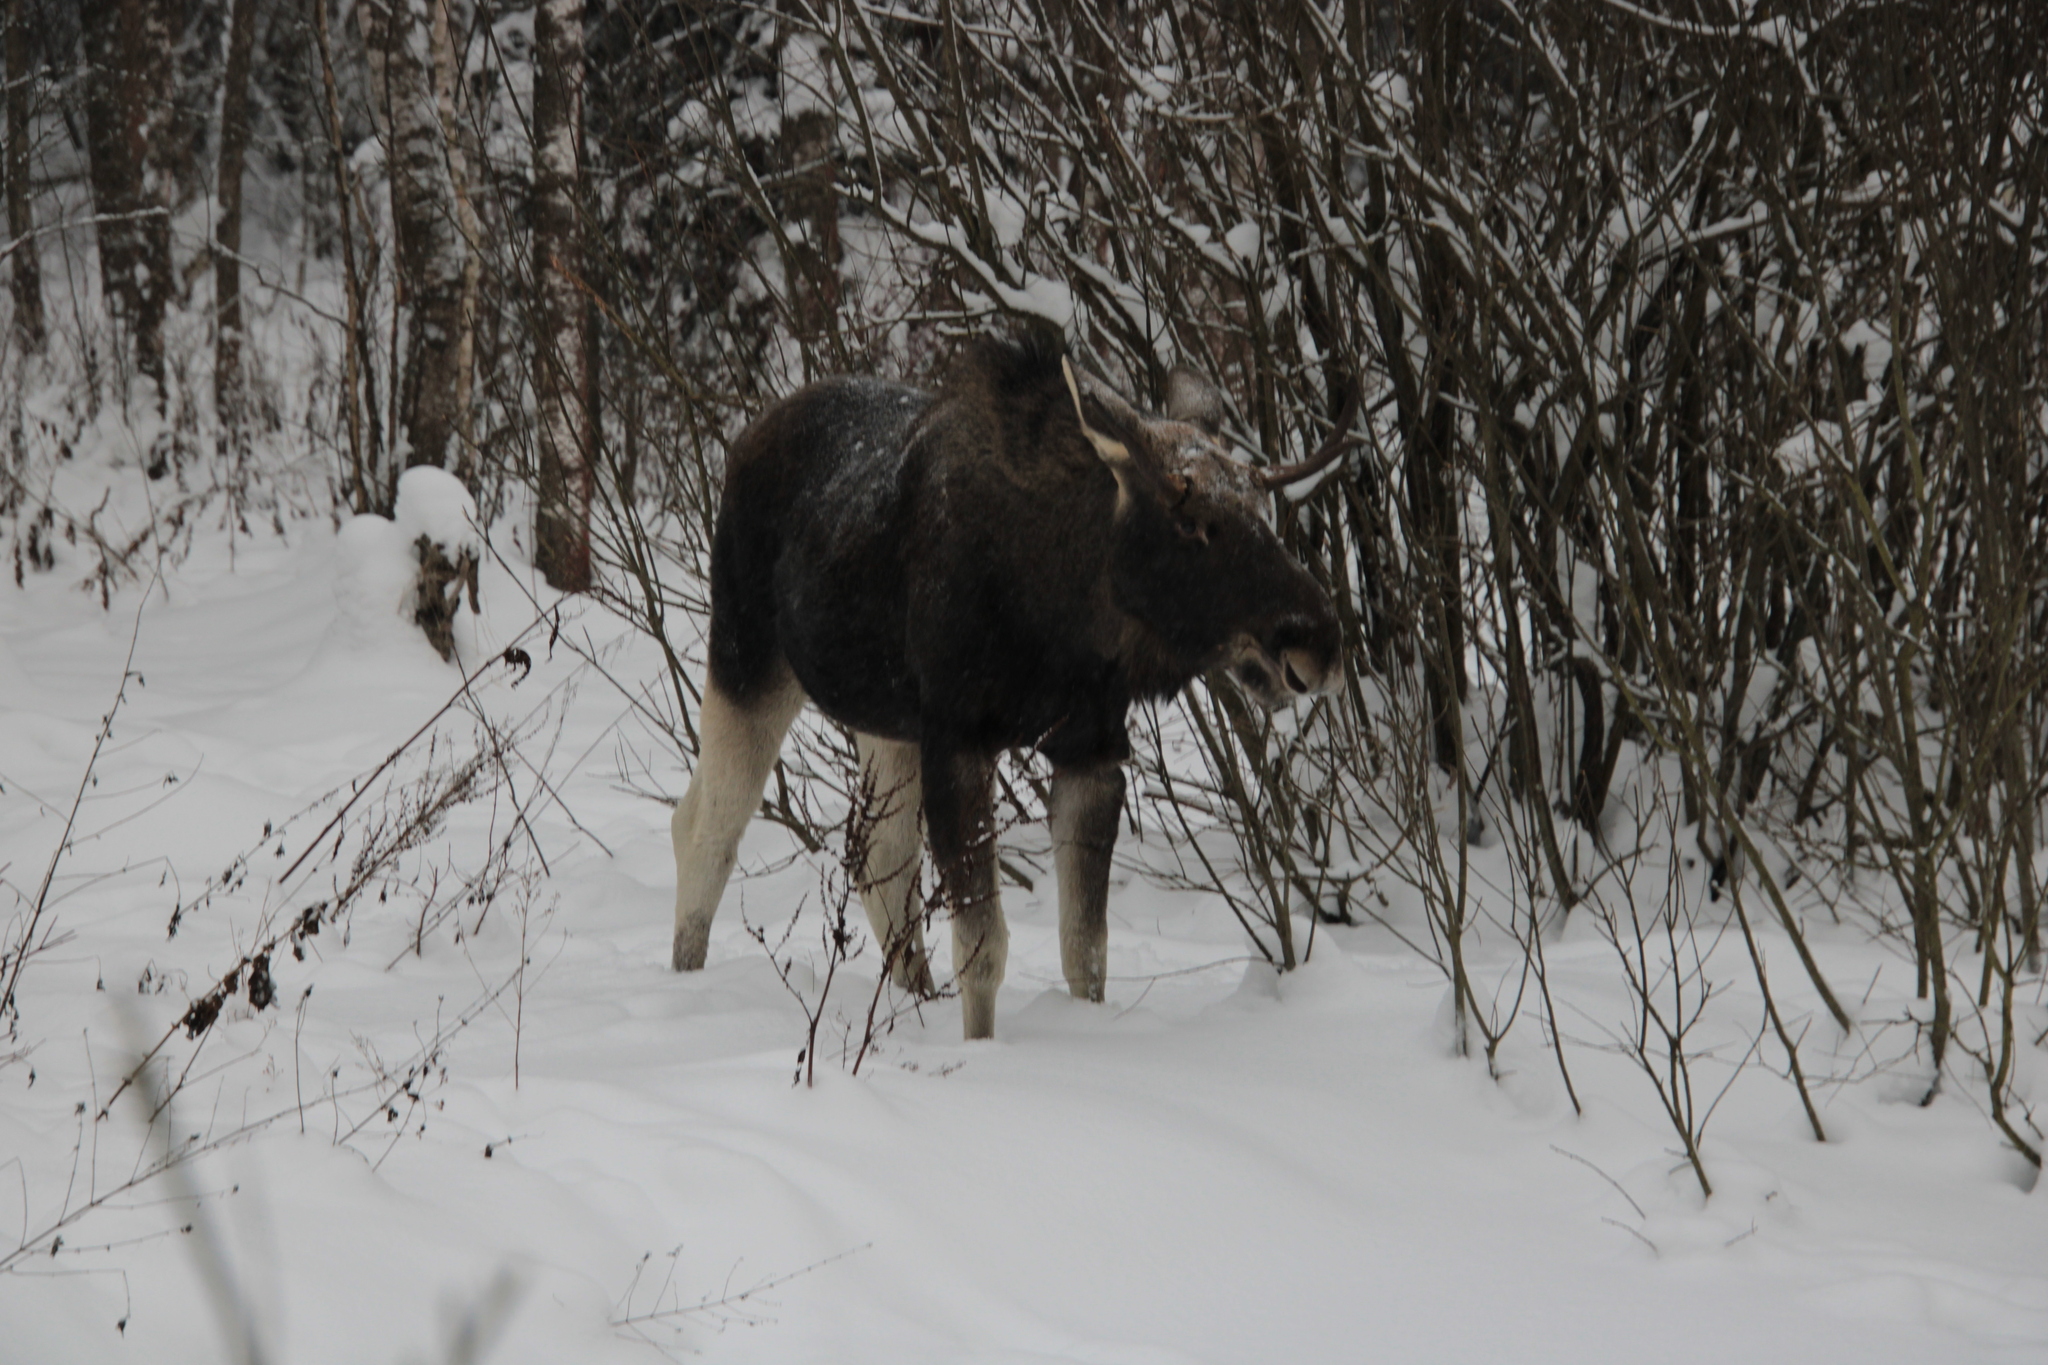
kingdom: Animalia
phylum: Chordata
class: Mammalia
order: Artiodactyla
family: Cervidae
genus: Alces
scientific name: Alces alces
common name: Moose
